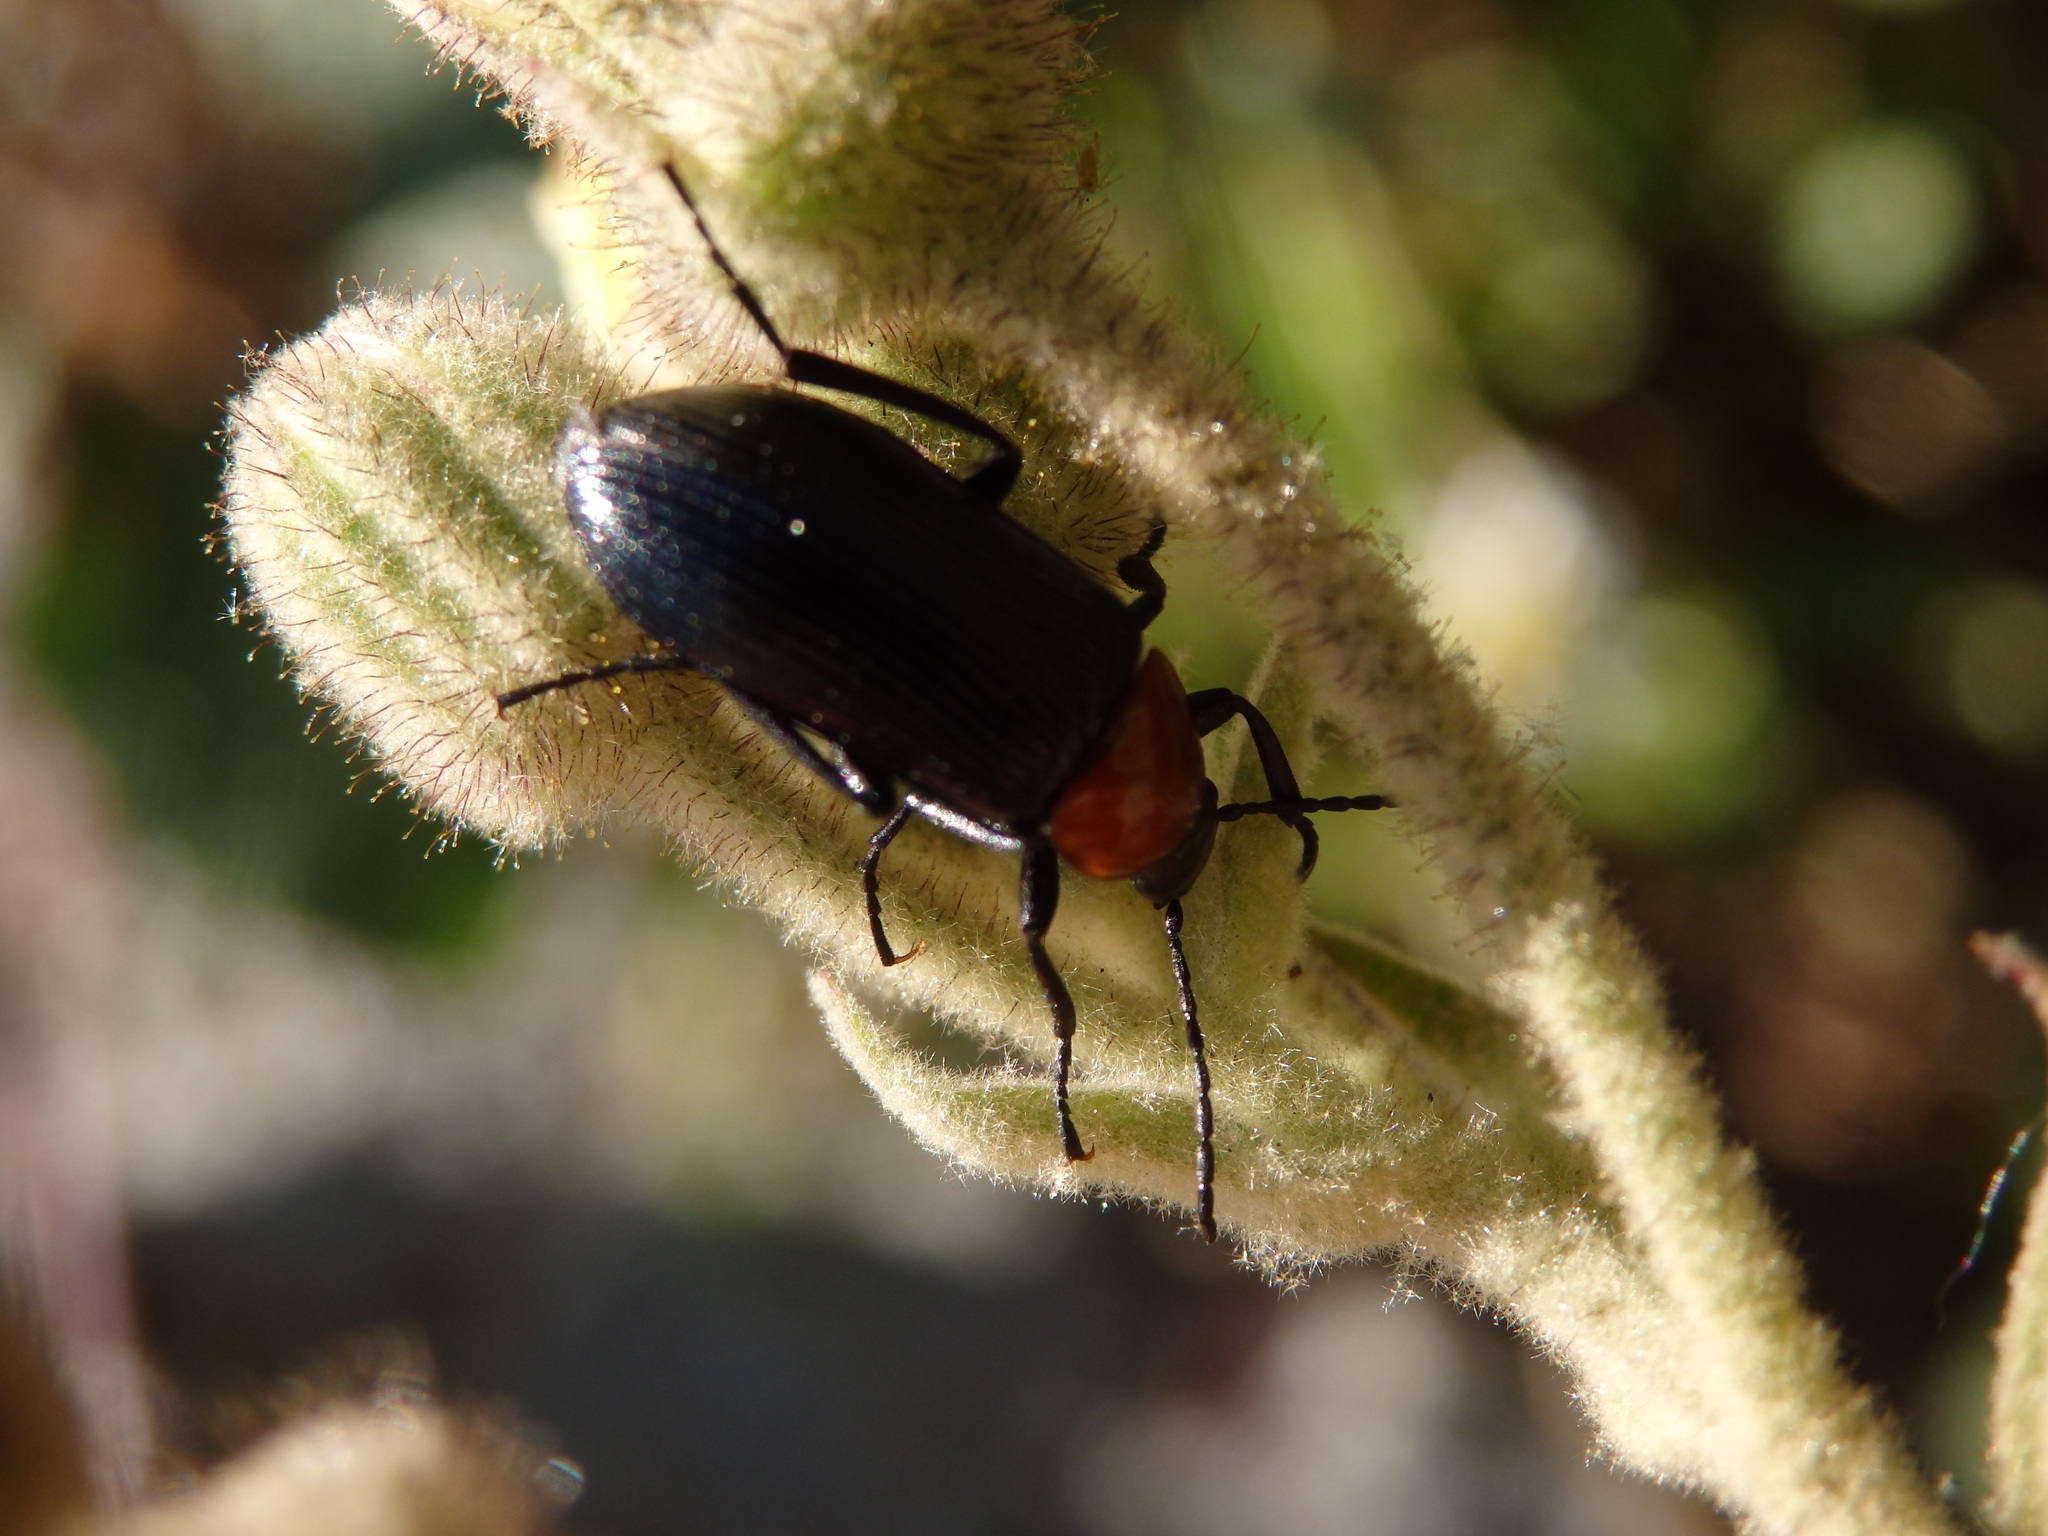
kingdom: Animalia
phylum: Arthropoda
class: Insecta
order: Coleoptera
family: Tenebrionidae
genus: Heliotaurus
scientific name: Heliotaurus ruficollis
